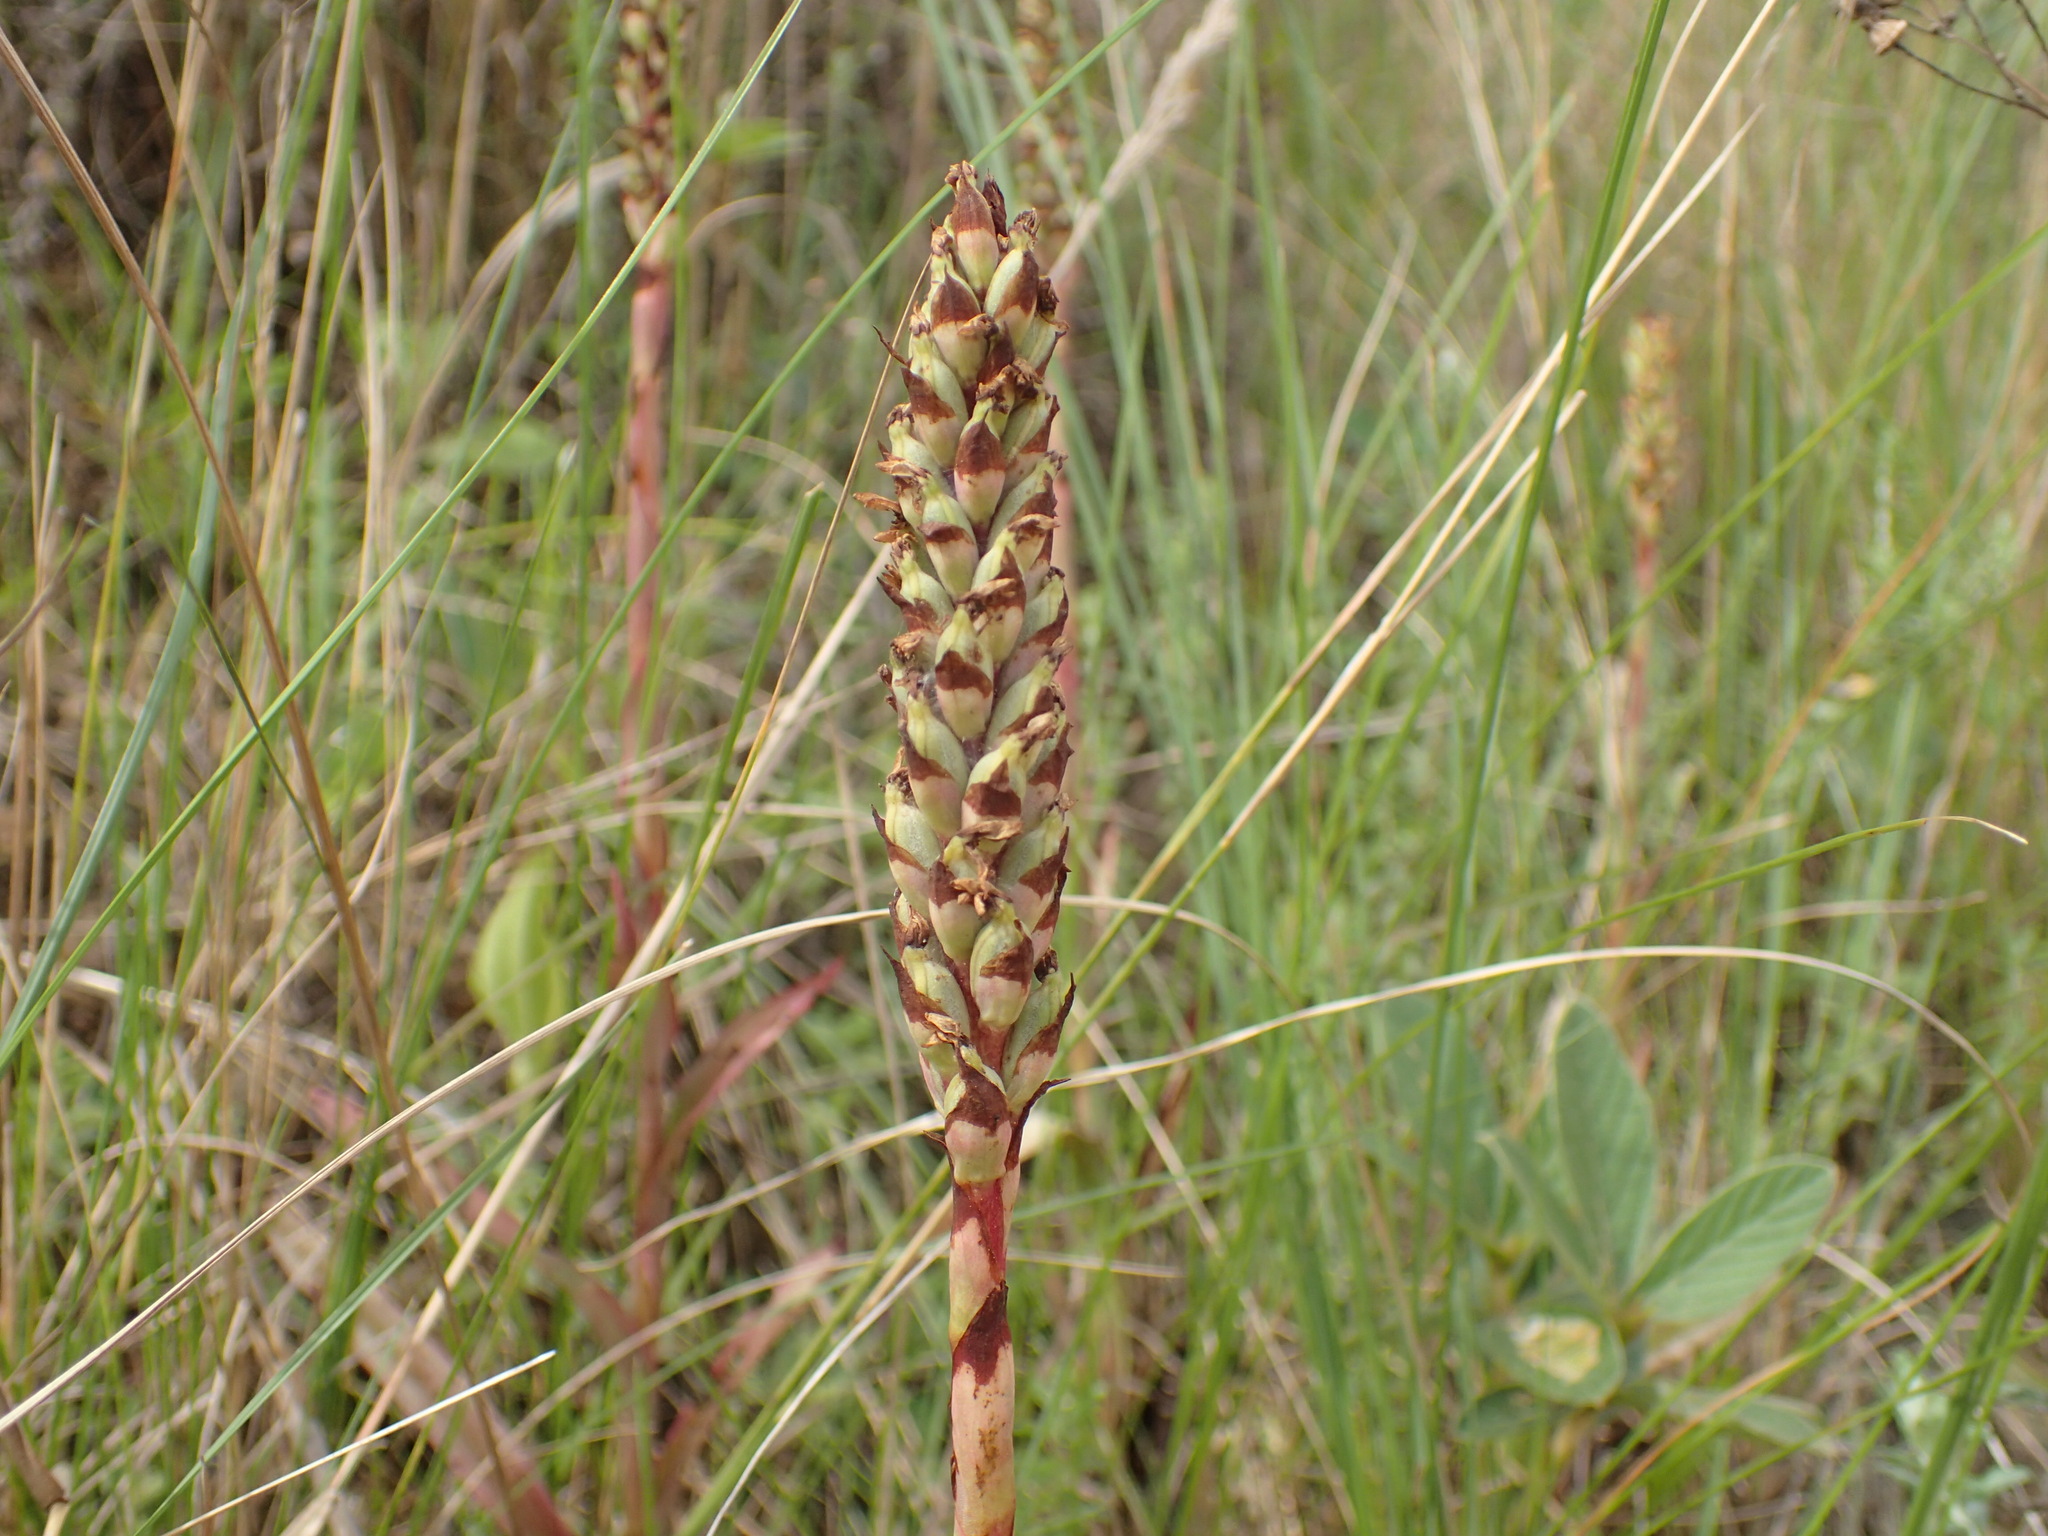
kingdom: Plantae
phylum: Tracheophyta
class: Liliopsida
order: Asparagales
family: Orchidaceae
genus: Disa
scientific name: Disa woodii
